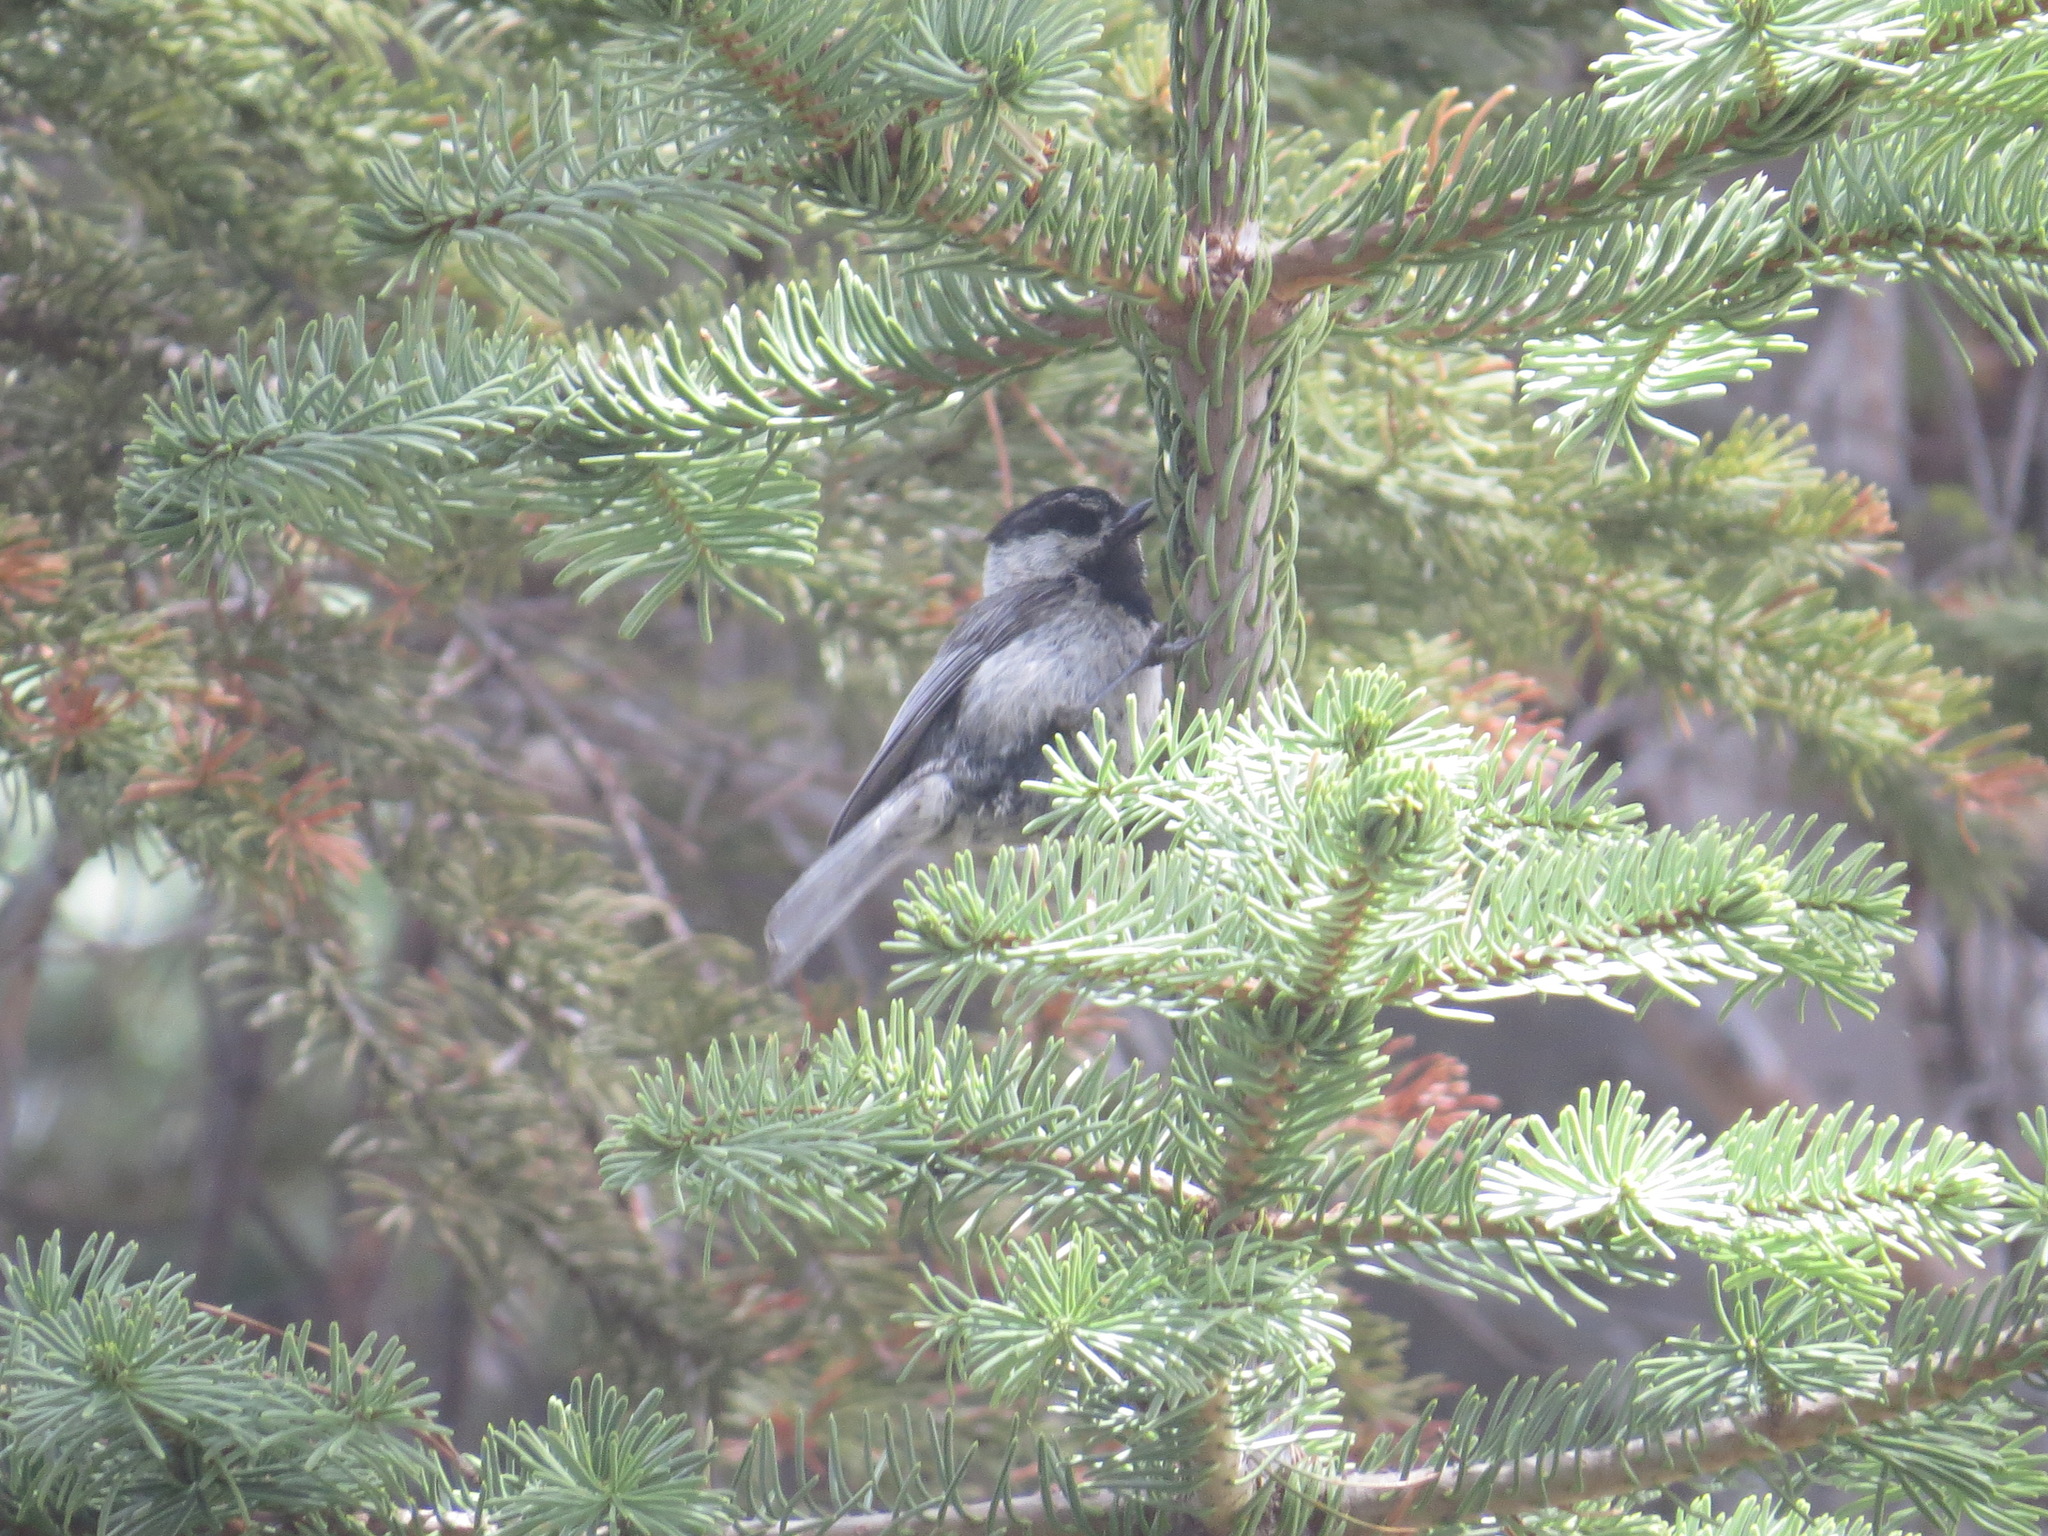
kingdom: Animalia
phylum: Chordata
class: Aves
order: Passeriformes
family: Paridae
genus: Poecile
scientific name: Poecile gambeli
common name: Mountain chickadee
